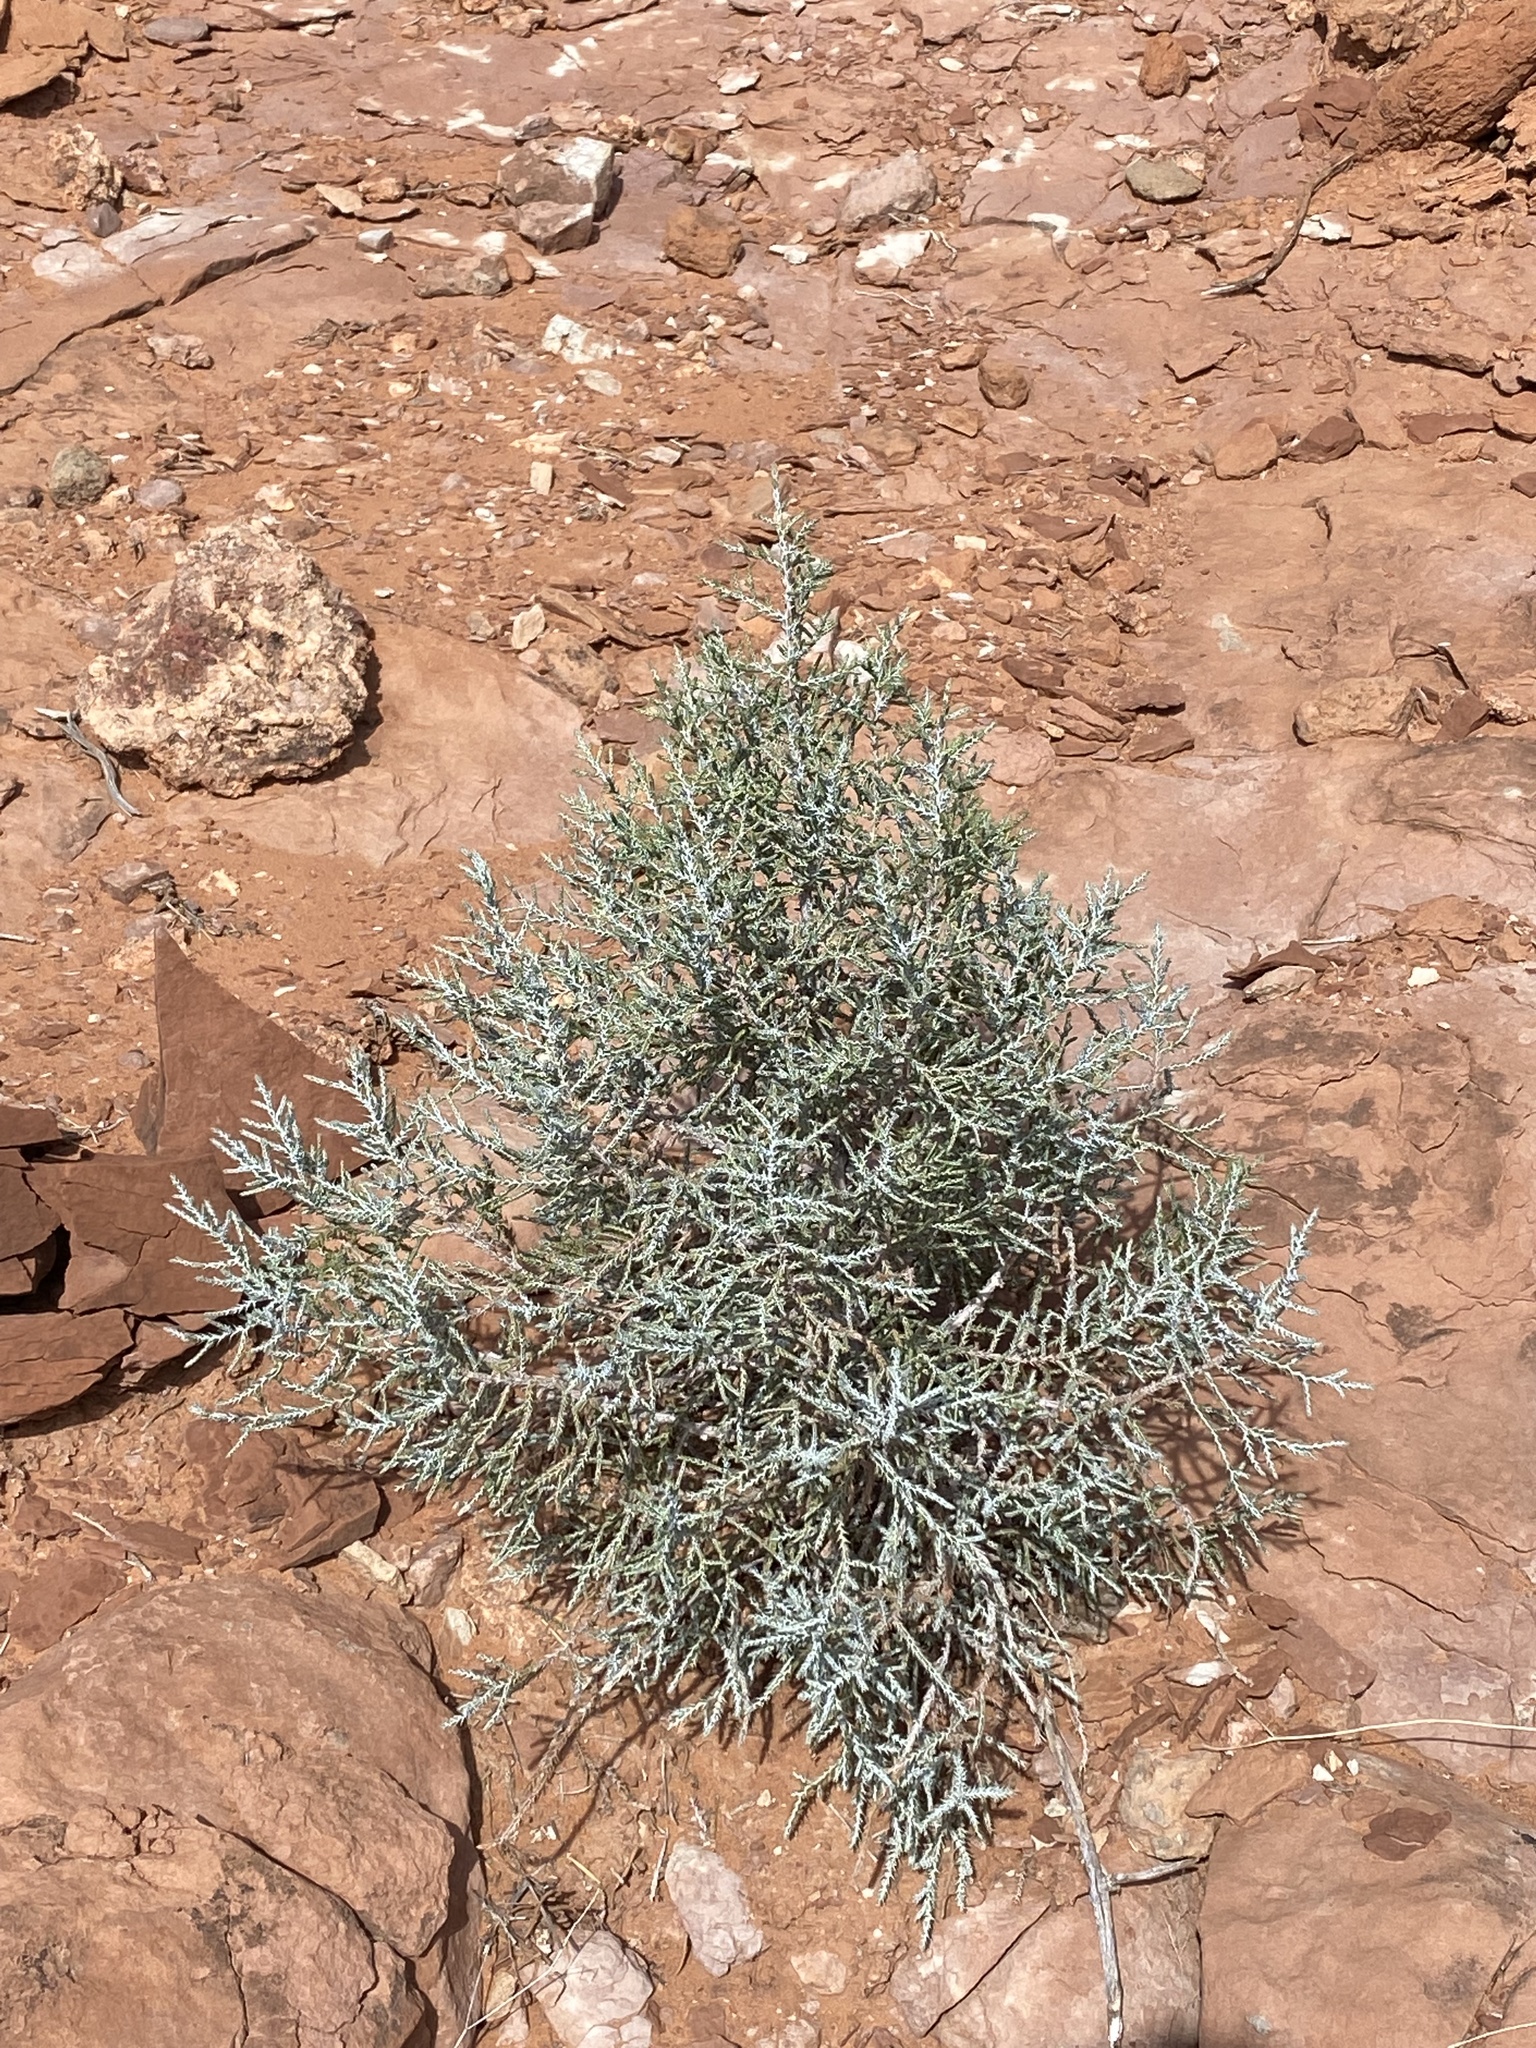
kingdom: Plantae
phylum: Tracheophyta
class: Pinopsida
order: Pinales
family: Cupressaceae
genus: Juniperus
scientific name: Juniperus osteosperma
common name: Utah juniper
